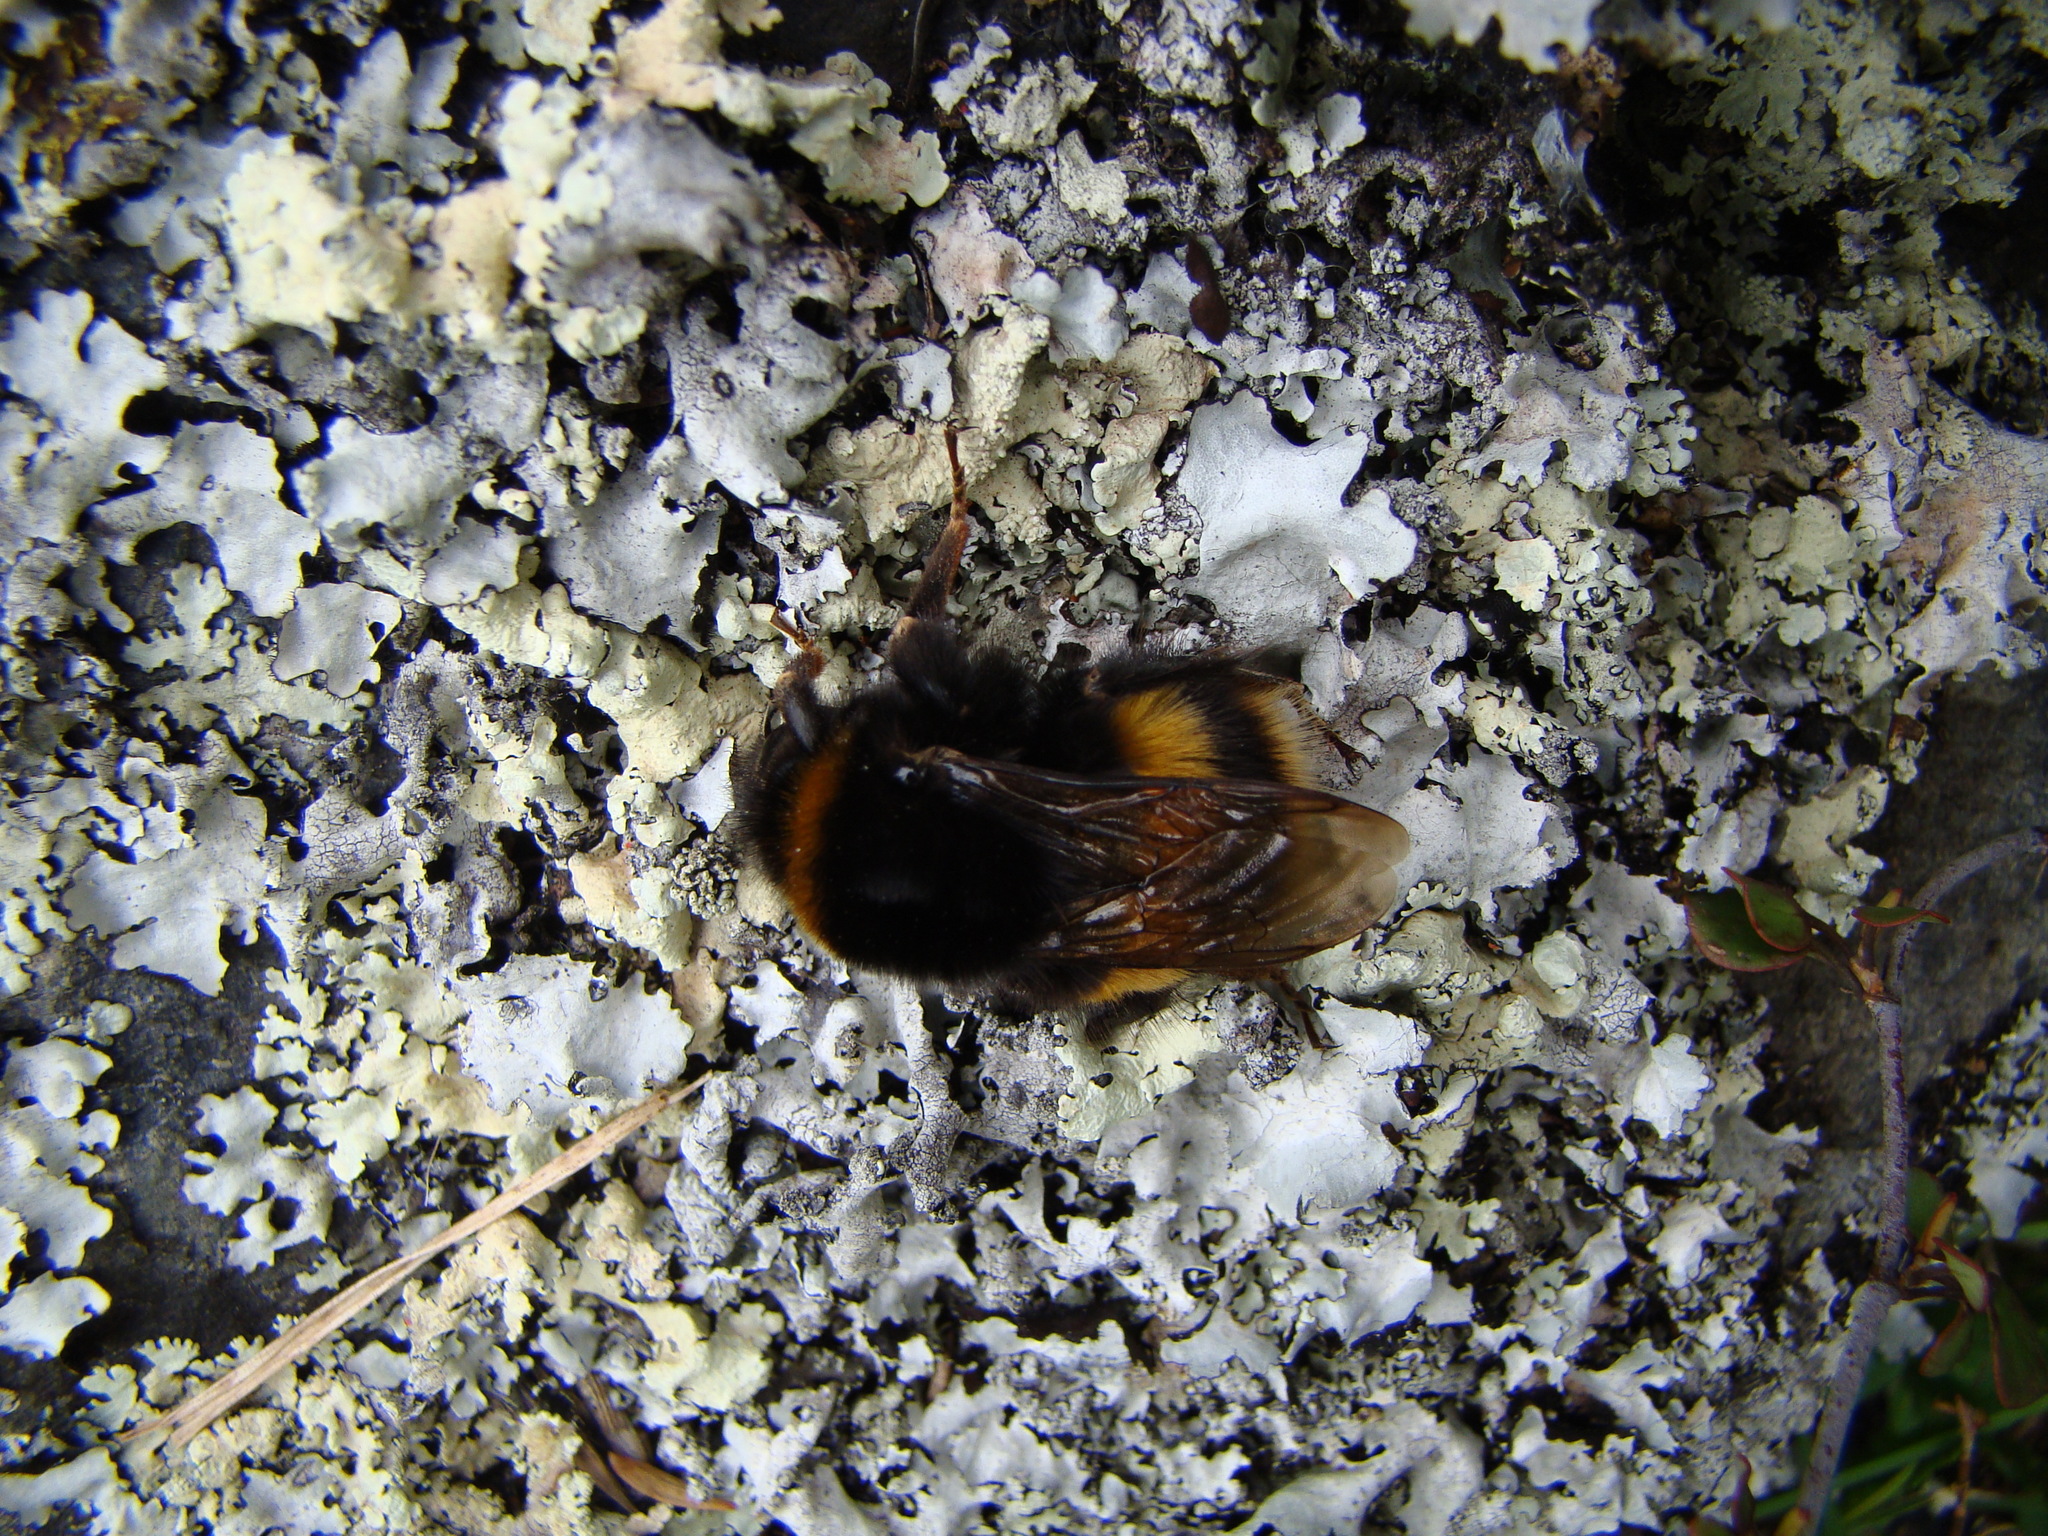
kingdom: Animalia
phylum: Arthropoda
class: Insecta
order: Hymenoptera
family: Apidae
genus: Bombus
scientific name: Bombus terrestris
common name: Buff-tailed bumblebee
